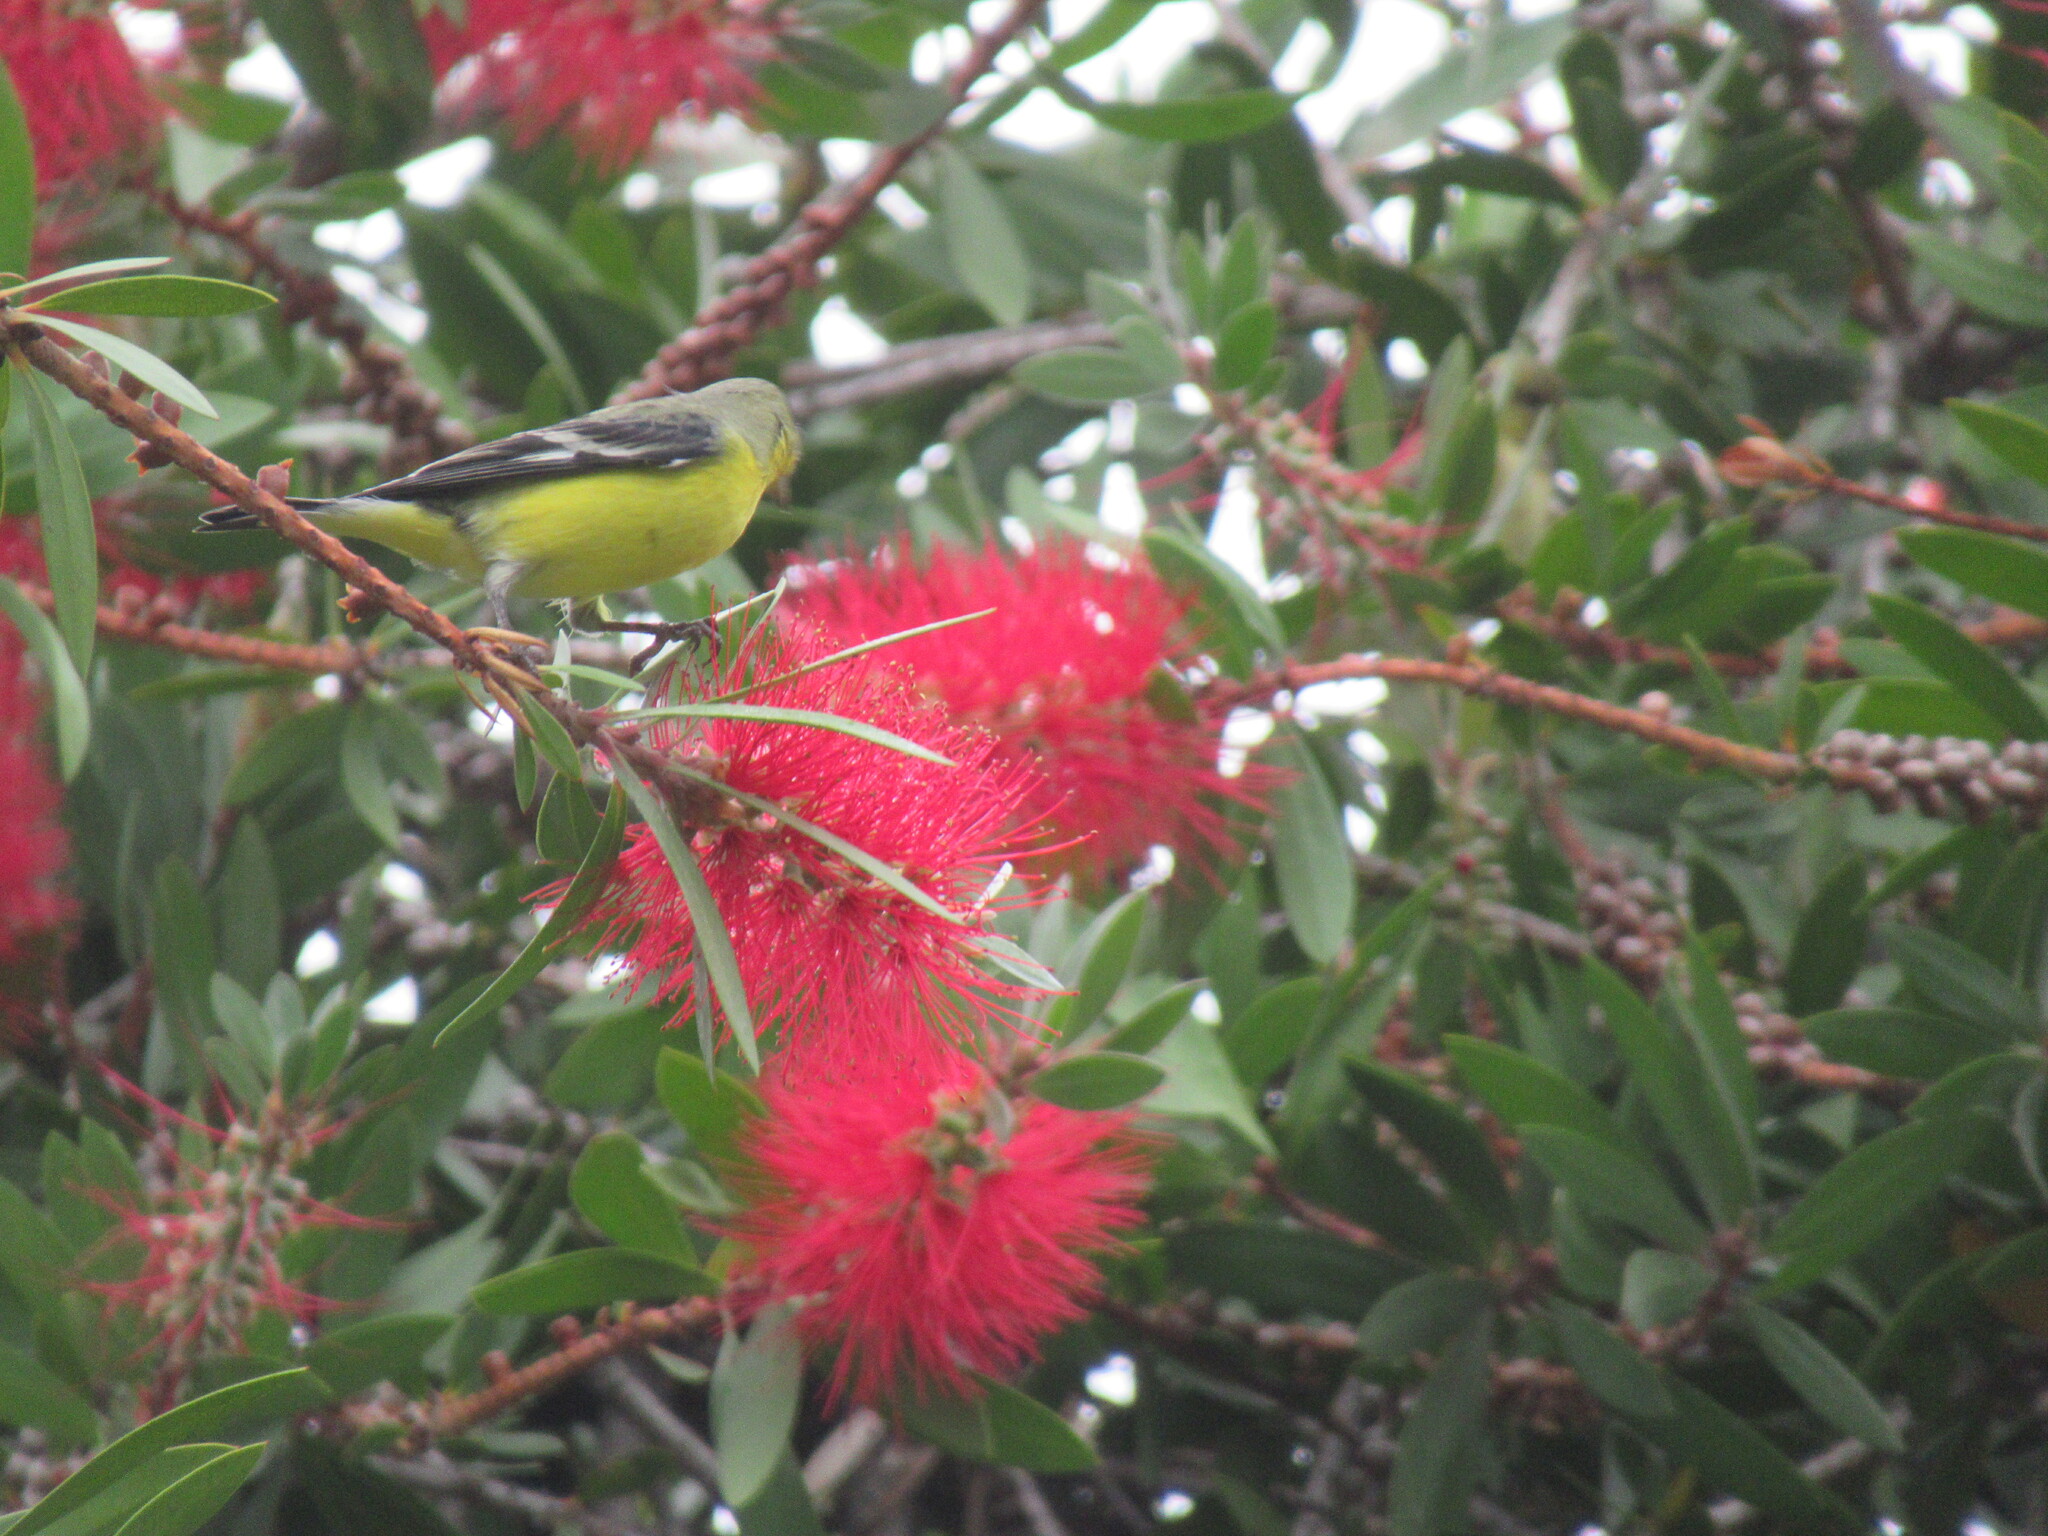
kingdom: Animalia
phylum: Chordata
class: Aves
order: Passeriformes
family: Fringillidae
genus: Spinus
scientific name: Spinus psaltria
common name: Lesser goldfinch
